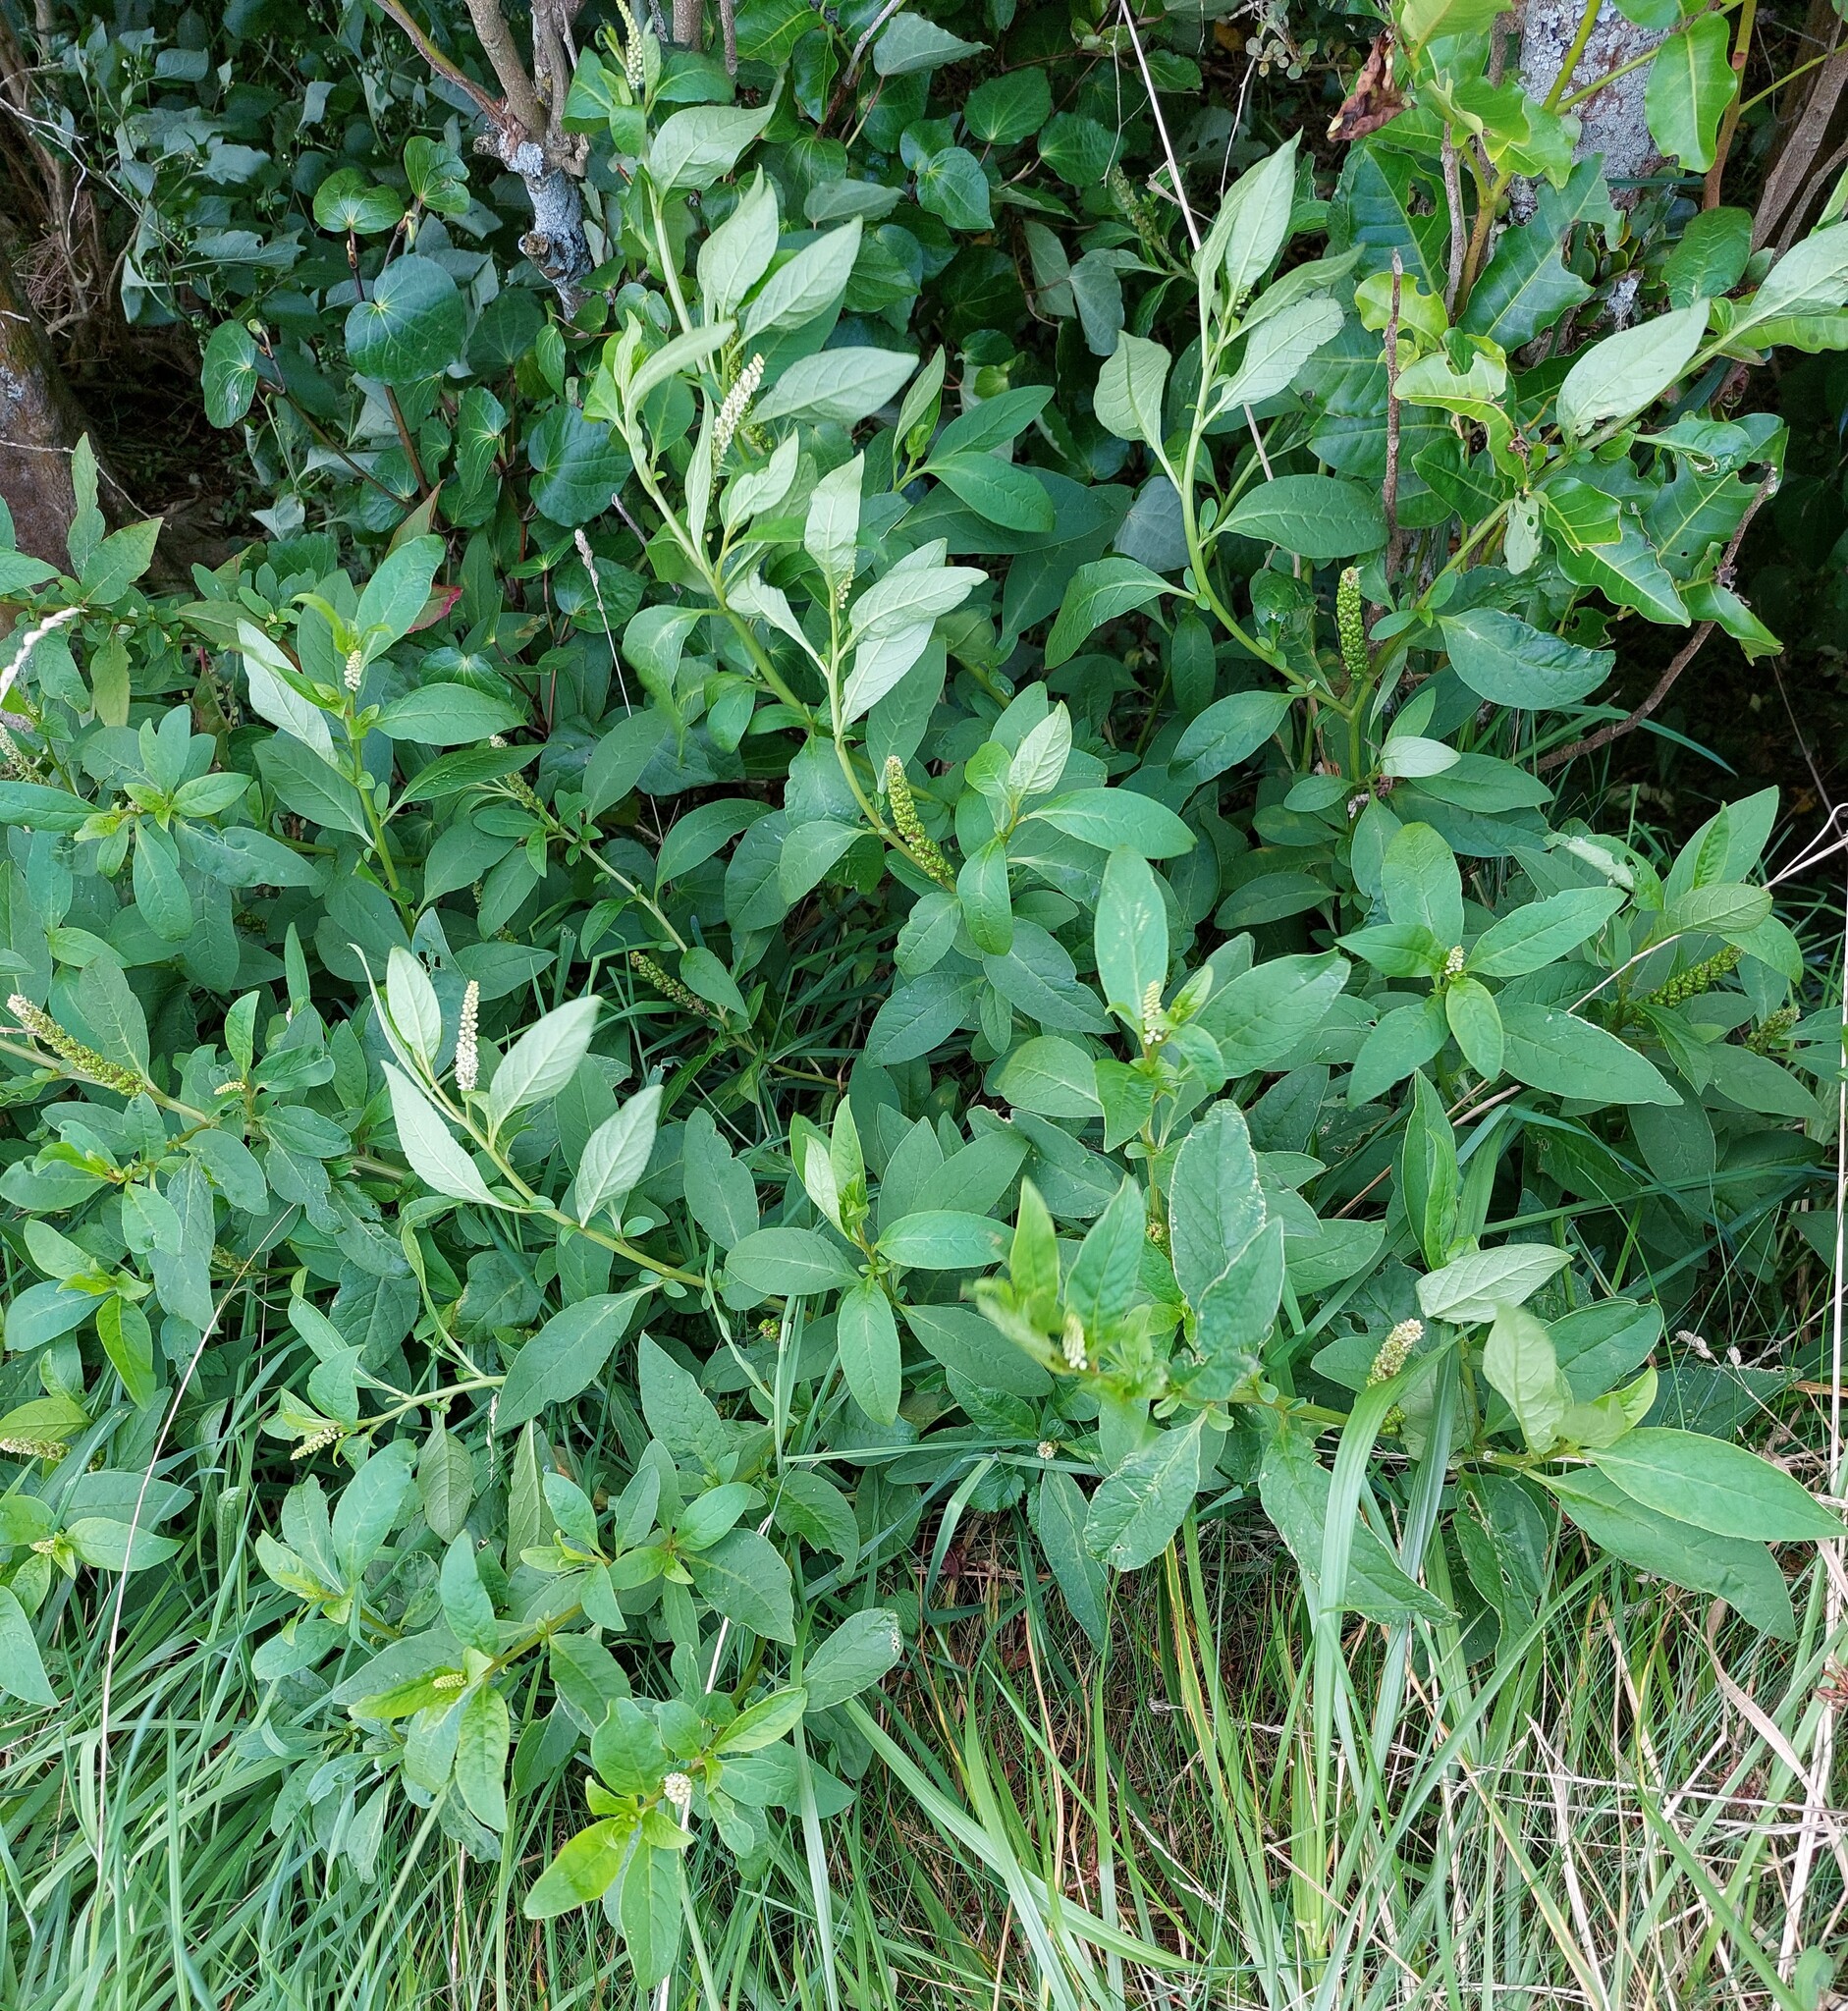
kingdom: Plantae
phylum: Tracheophyta
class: Magnoliopsida
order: Caryophyllales
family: Phytolaccaceae
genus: Phytolacca
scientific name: Phytolacca icosandra
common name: Button pokeweed
